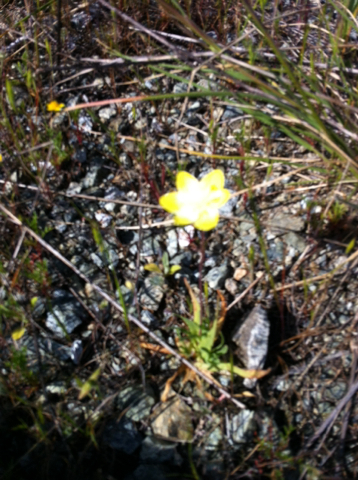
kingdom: Plantae
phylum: Tracheophyta
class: Magnoliopsida
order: Ranunculales
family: Papaveraceae
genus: Platystemon
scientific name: Platystemon californicus
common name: Cream-cups
